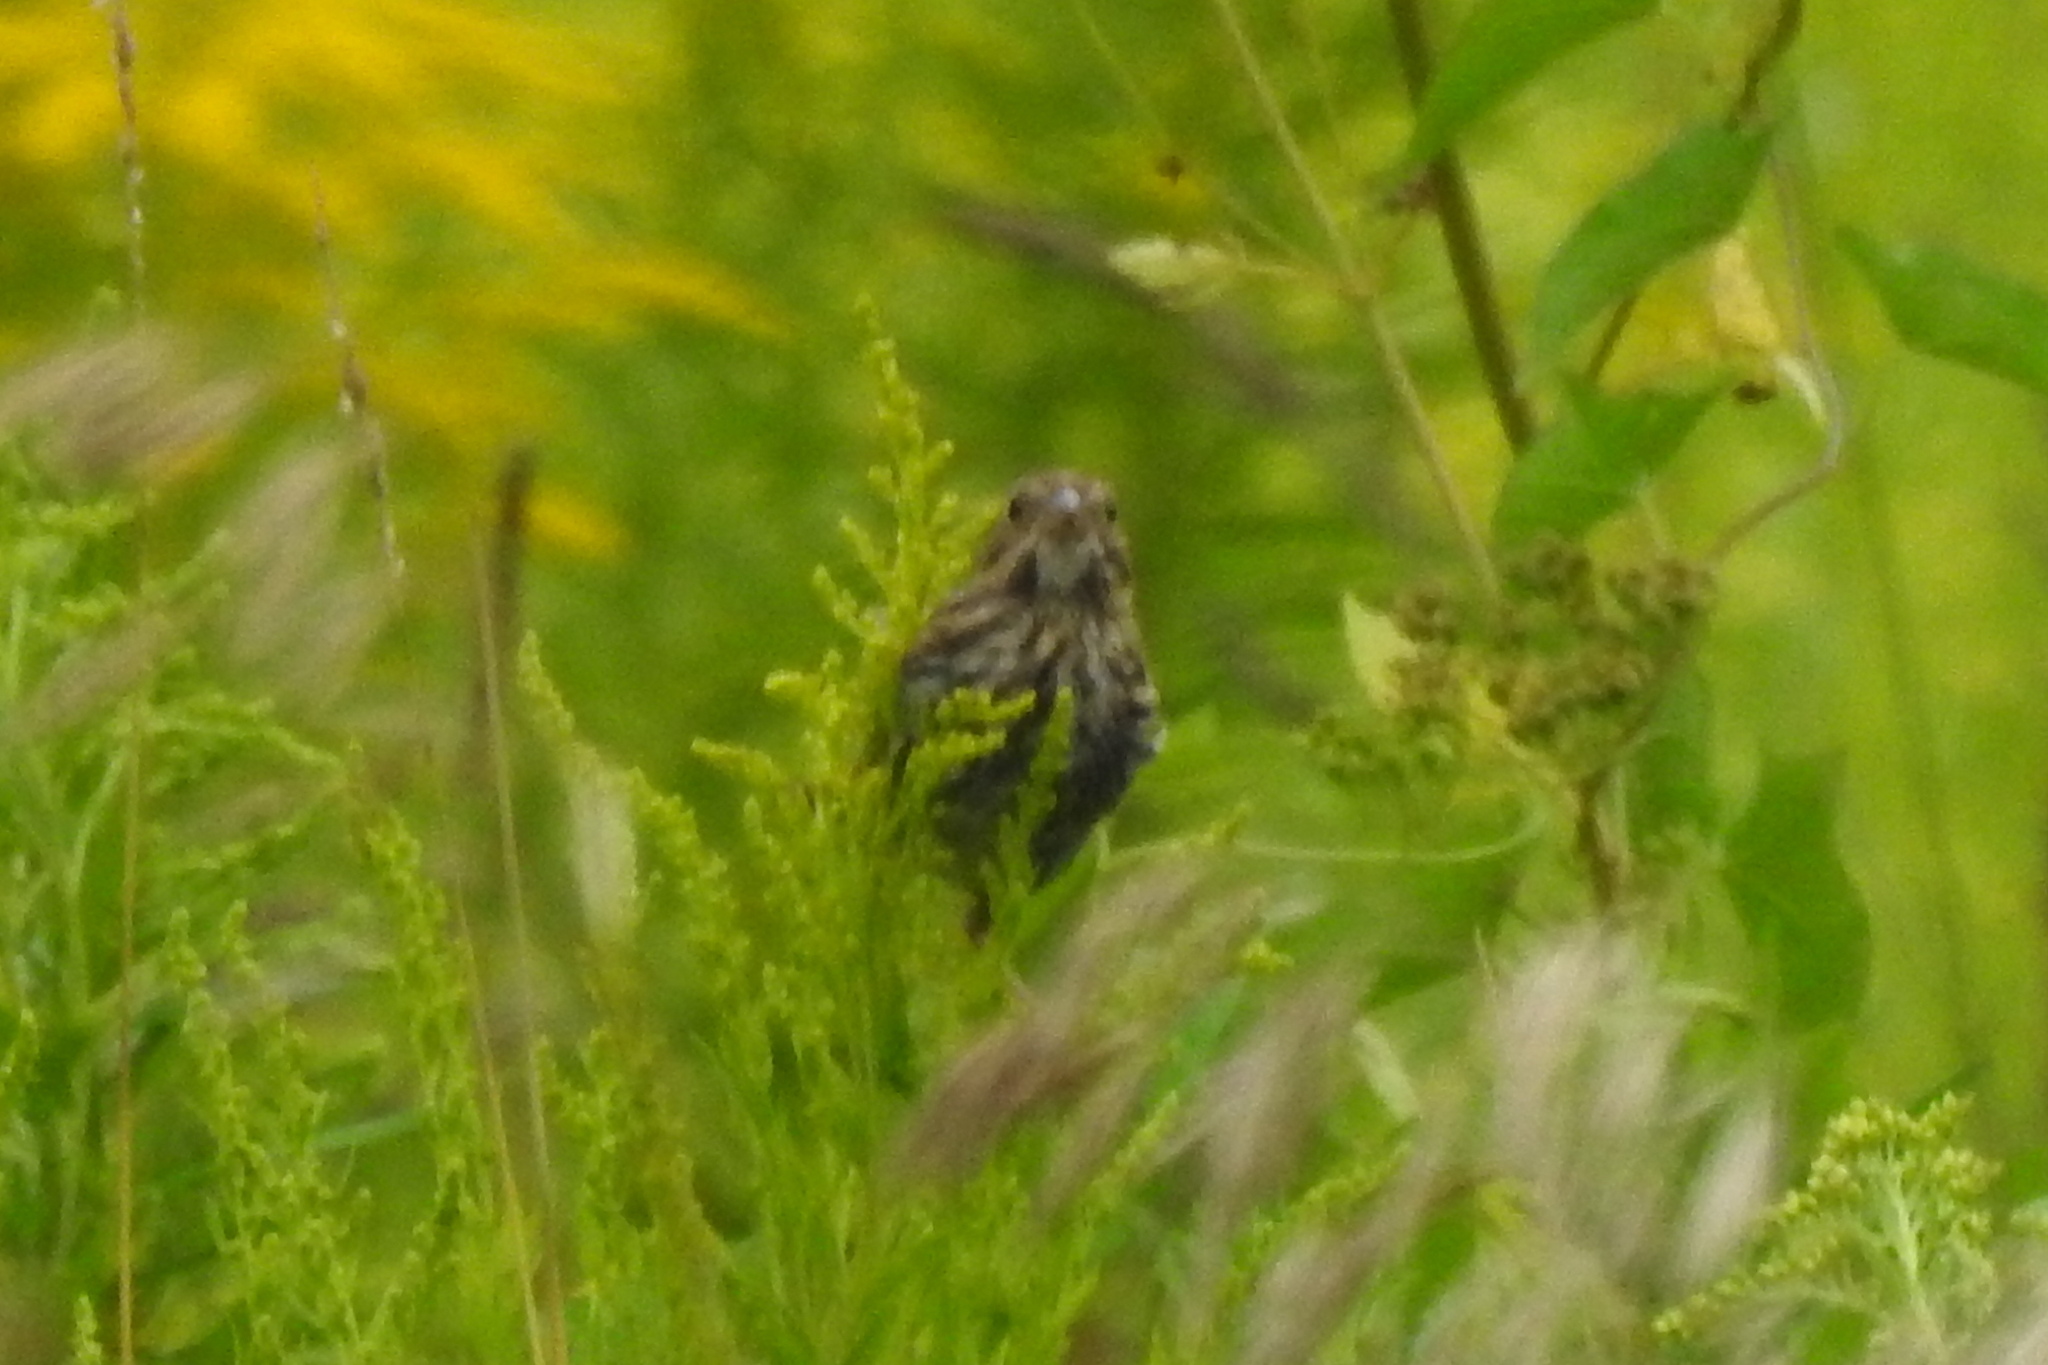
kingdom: Animalia
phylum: Chordata
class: Aves
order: Passeriformes
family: Passerellidae
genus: Melospiza
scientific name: Melospiza melodia
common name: Song sparrow
